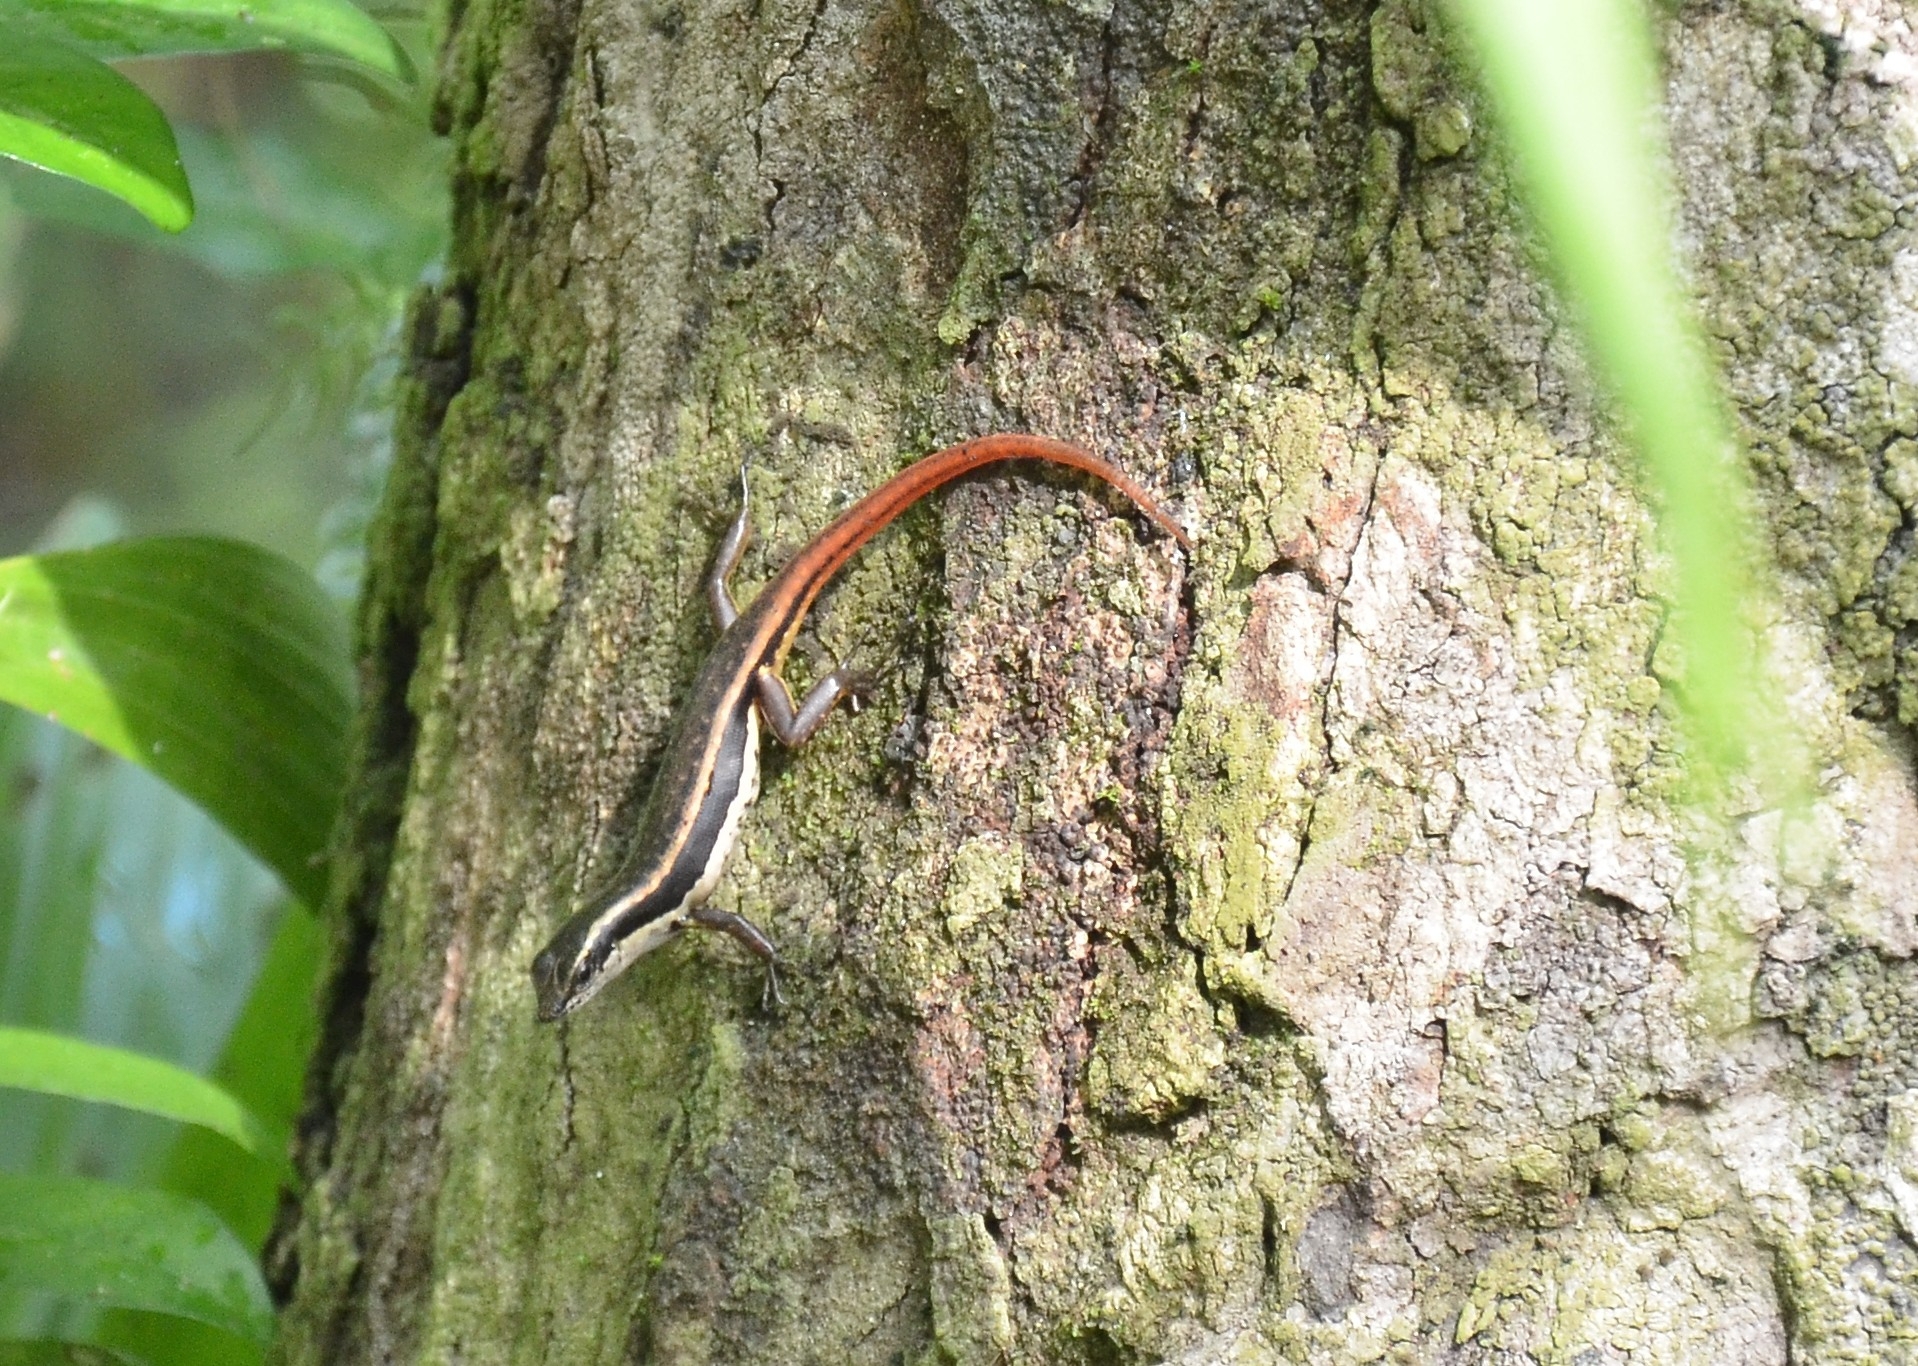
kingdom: Animalia
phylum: Chordata
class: Squamata
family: Scincidae
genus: Sphenomorphus
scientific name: Sphenomorphus dussumieri
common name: Dussumier's forest skink
